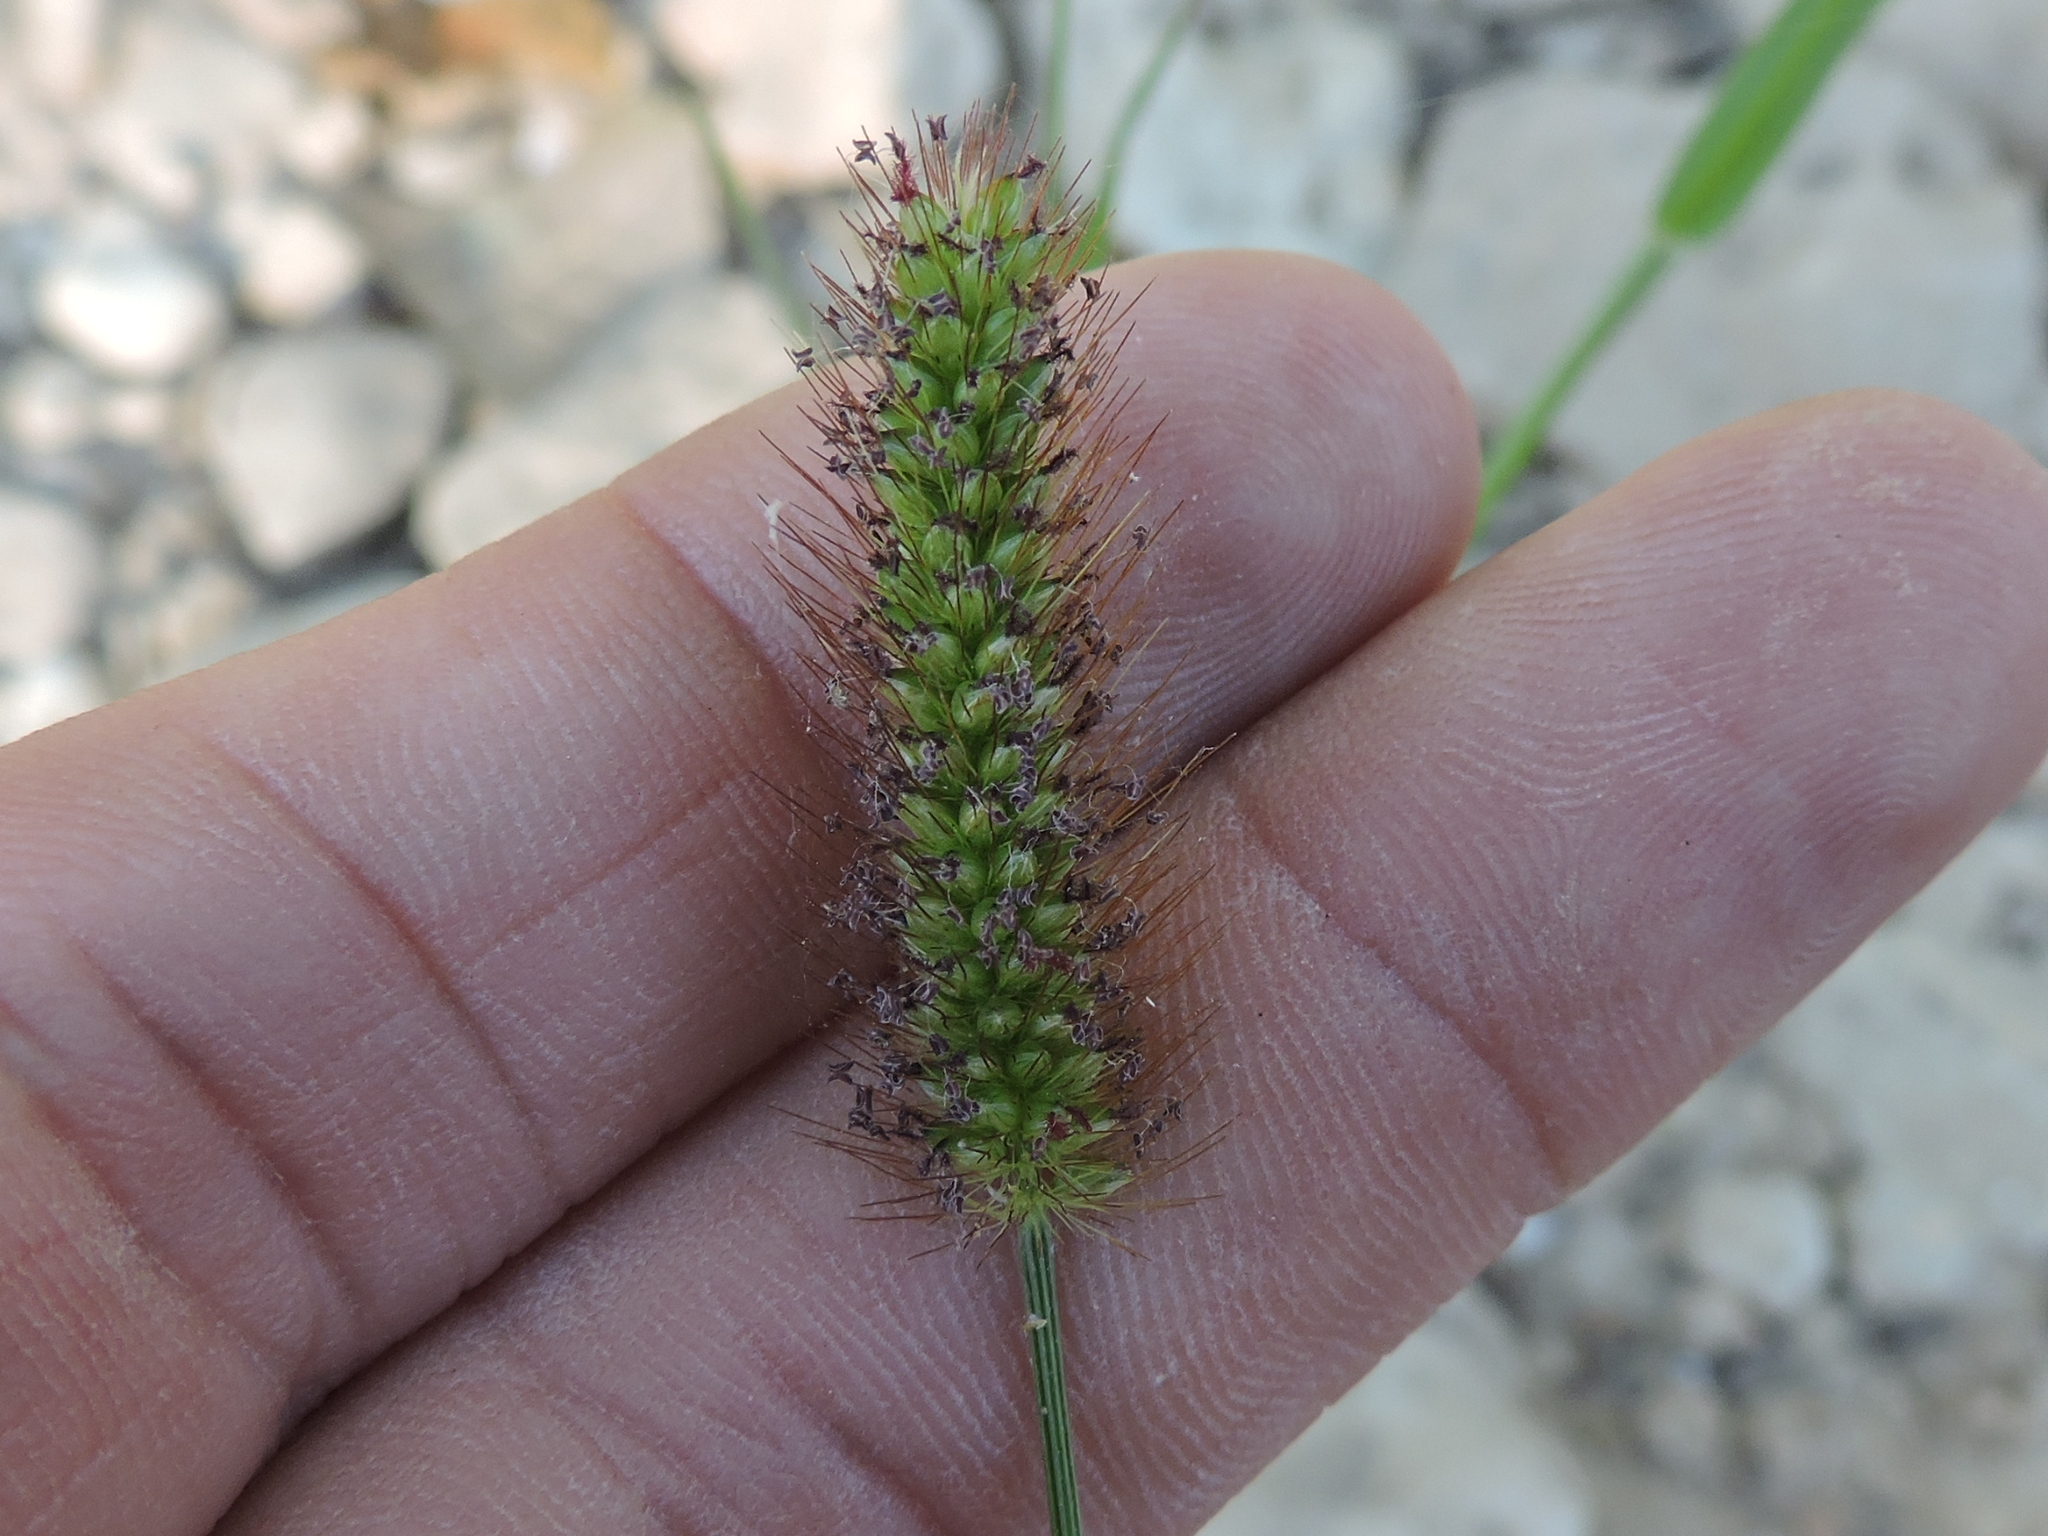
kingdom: Plantae
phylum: Tracheophyta
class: Liliopsida
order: Poales
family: Poaceae
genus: Setaria
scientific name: Setaria parviflora
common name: Knotroot bristle-grass
